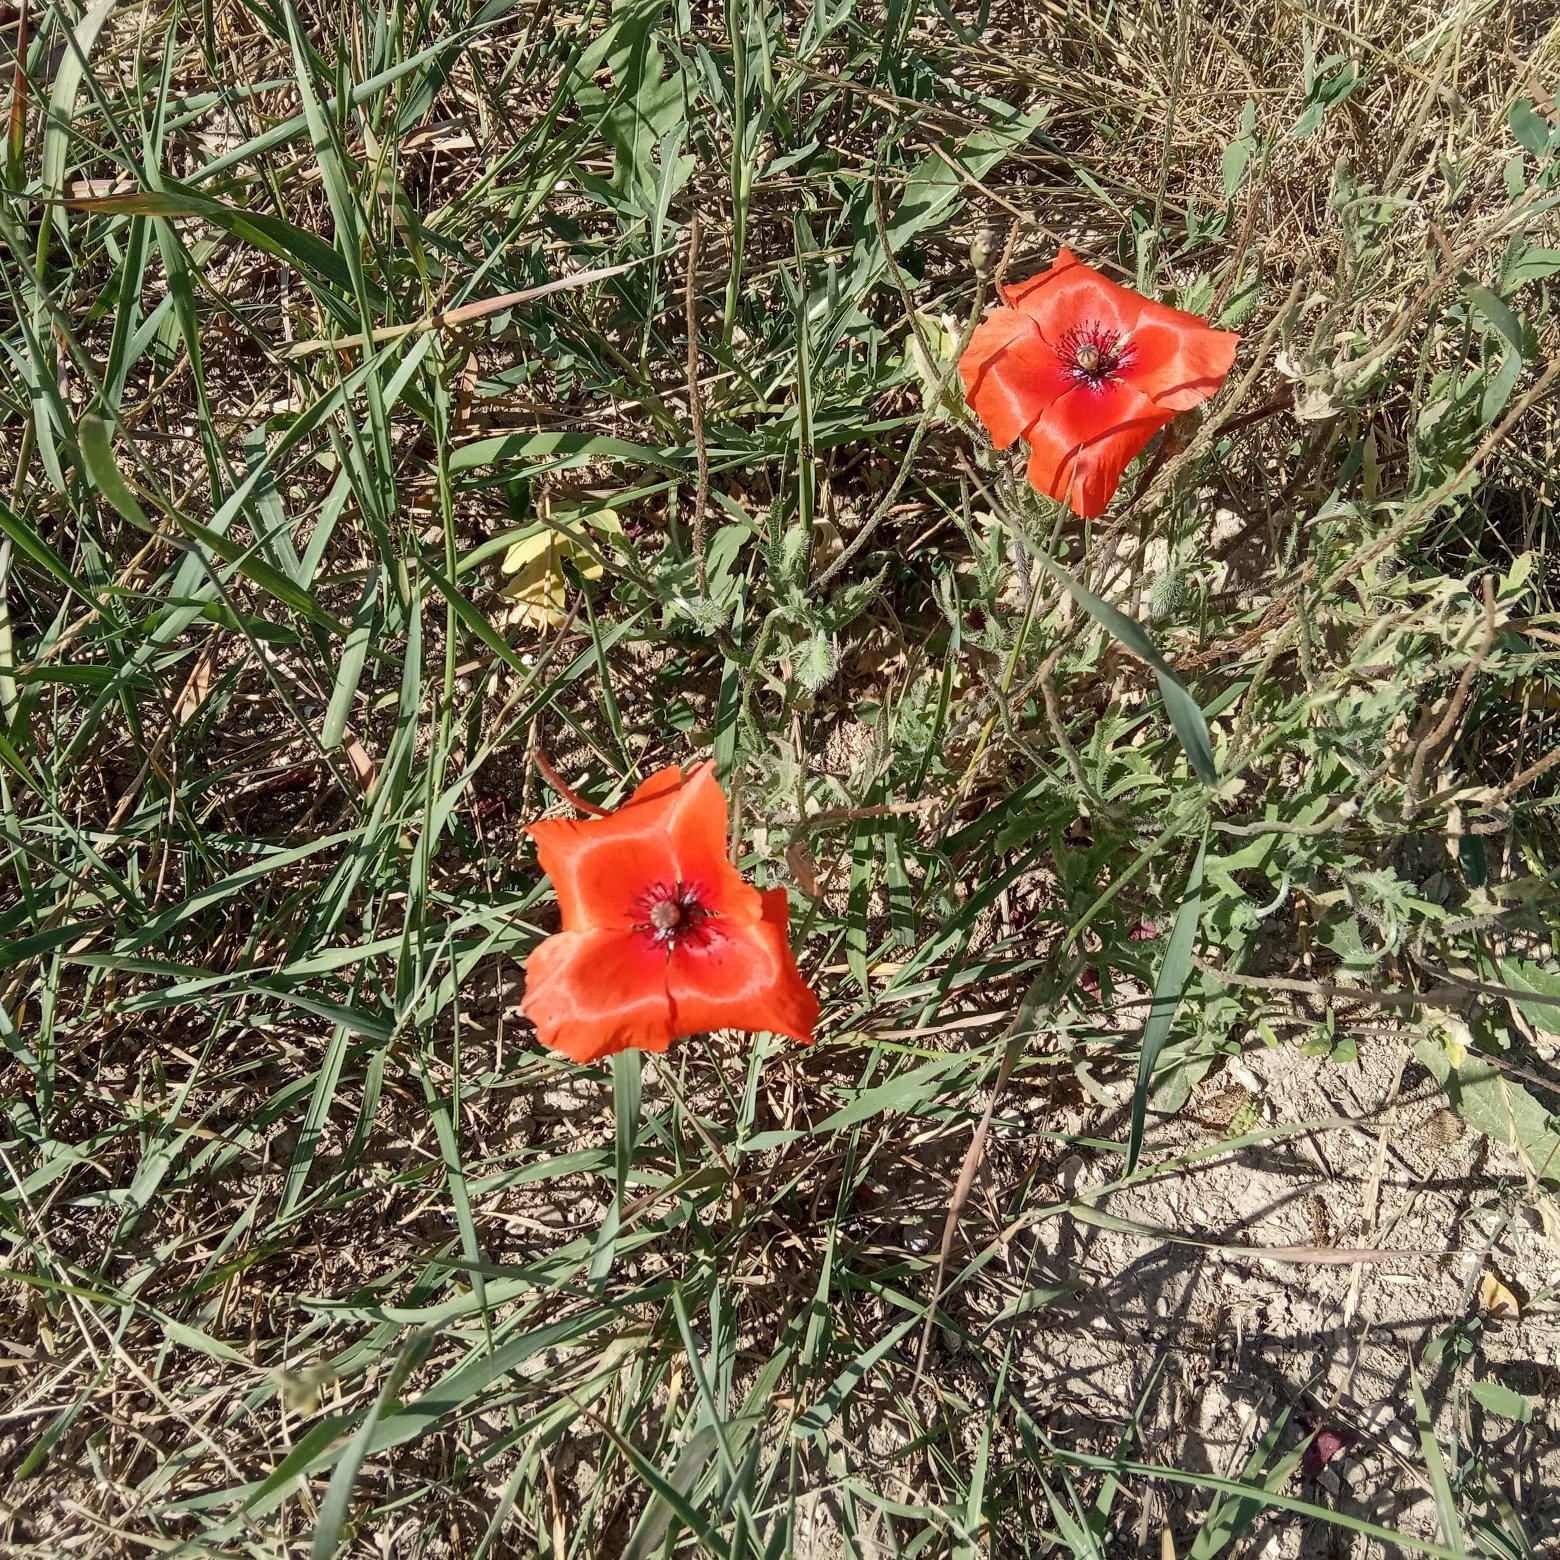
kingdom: Plantae
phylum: Tracheophyta
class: Magnoliopsida
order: Ranunculales
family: Papaveraceae
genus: Papaver
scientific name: Papaver rhoeas
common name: Corn poppy
